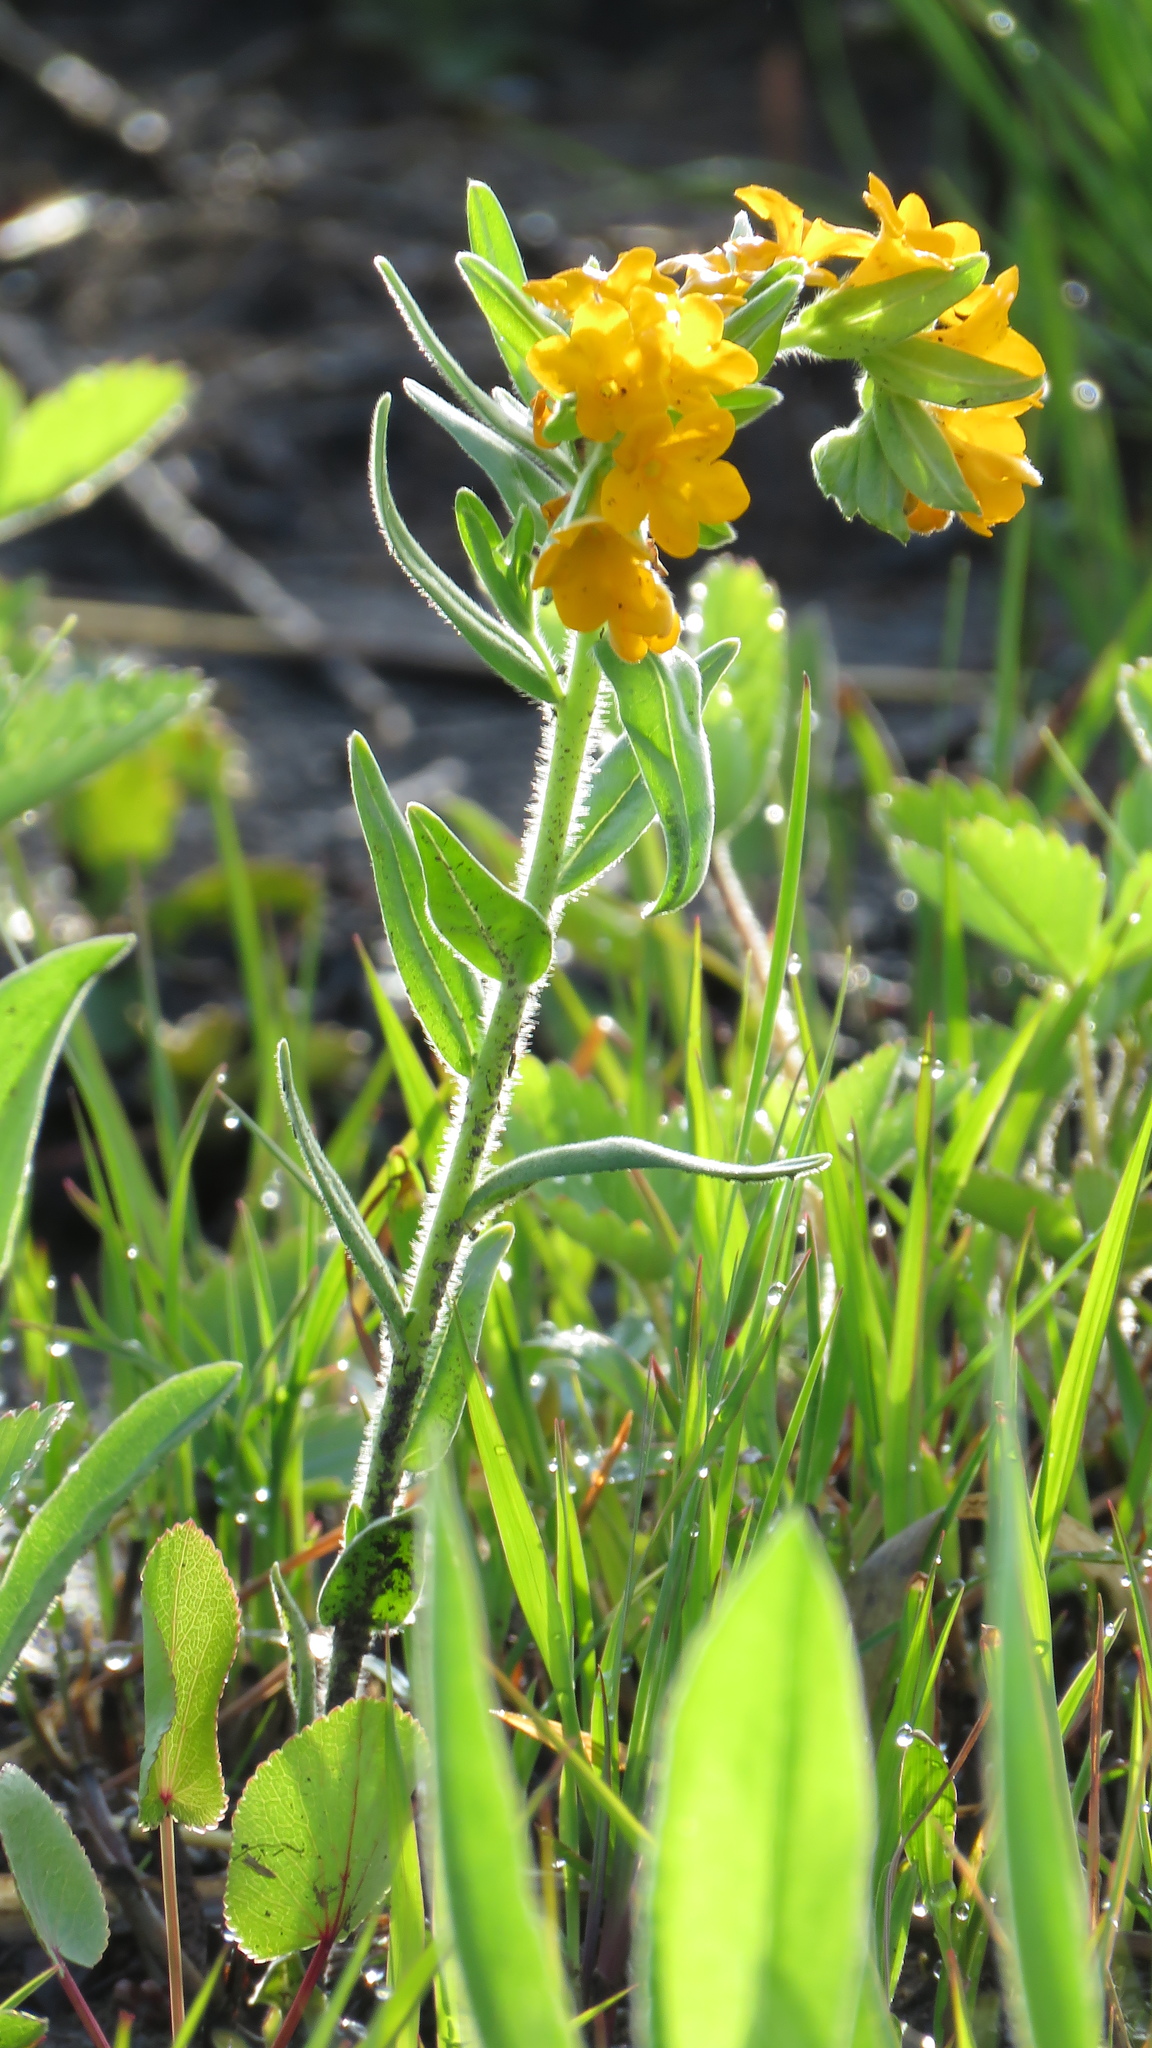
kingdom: Plantae
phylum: Tracheophyta
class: Magnoliopsida
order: Boraginales
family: Boraginaceae
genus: Lithospermum
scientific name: Lithospermum canescens
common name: Hoary puccoon
